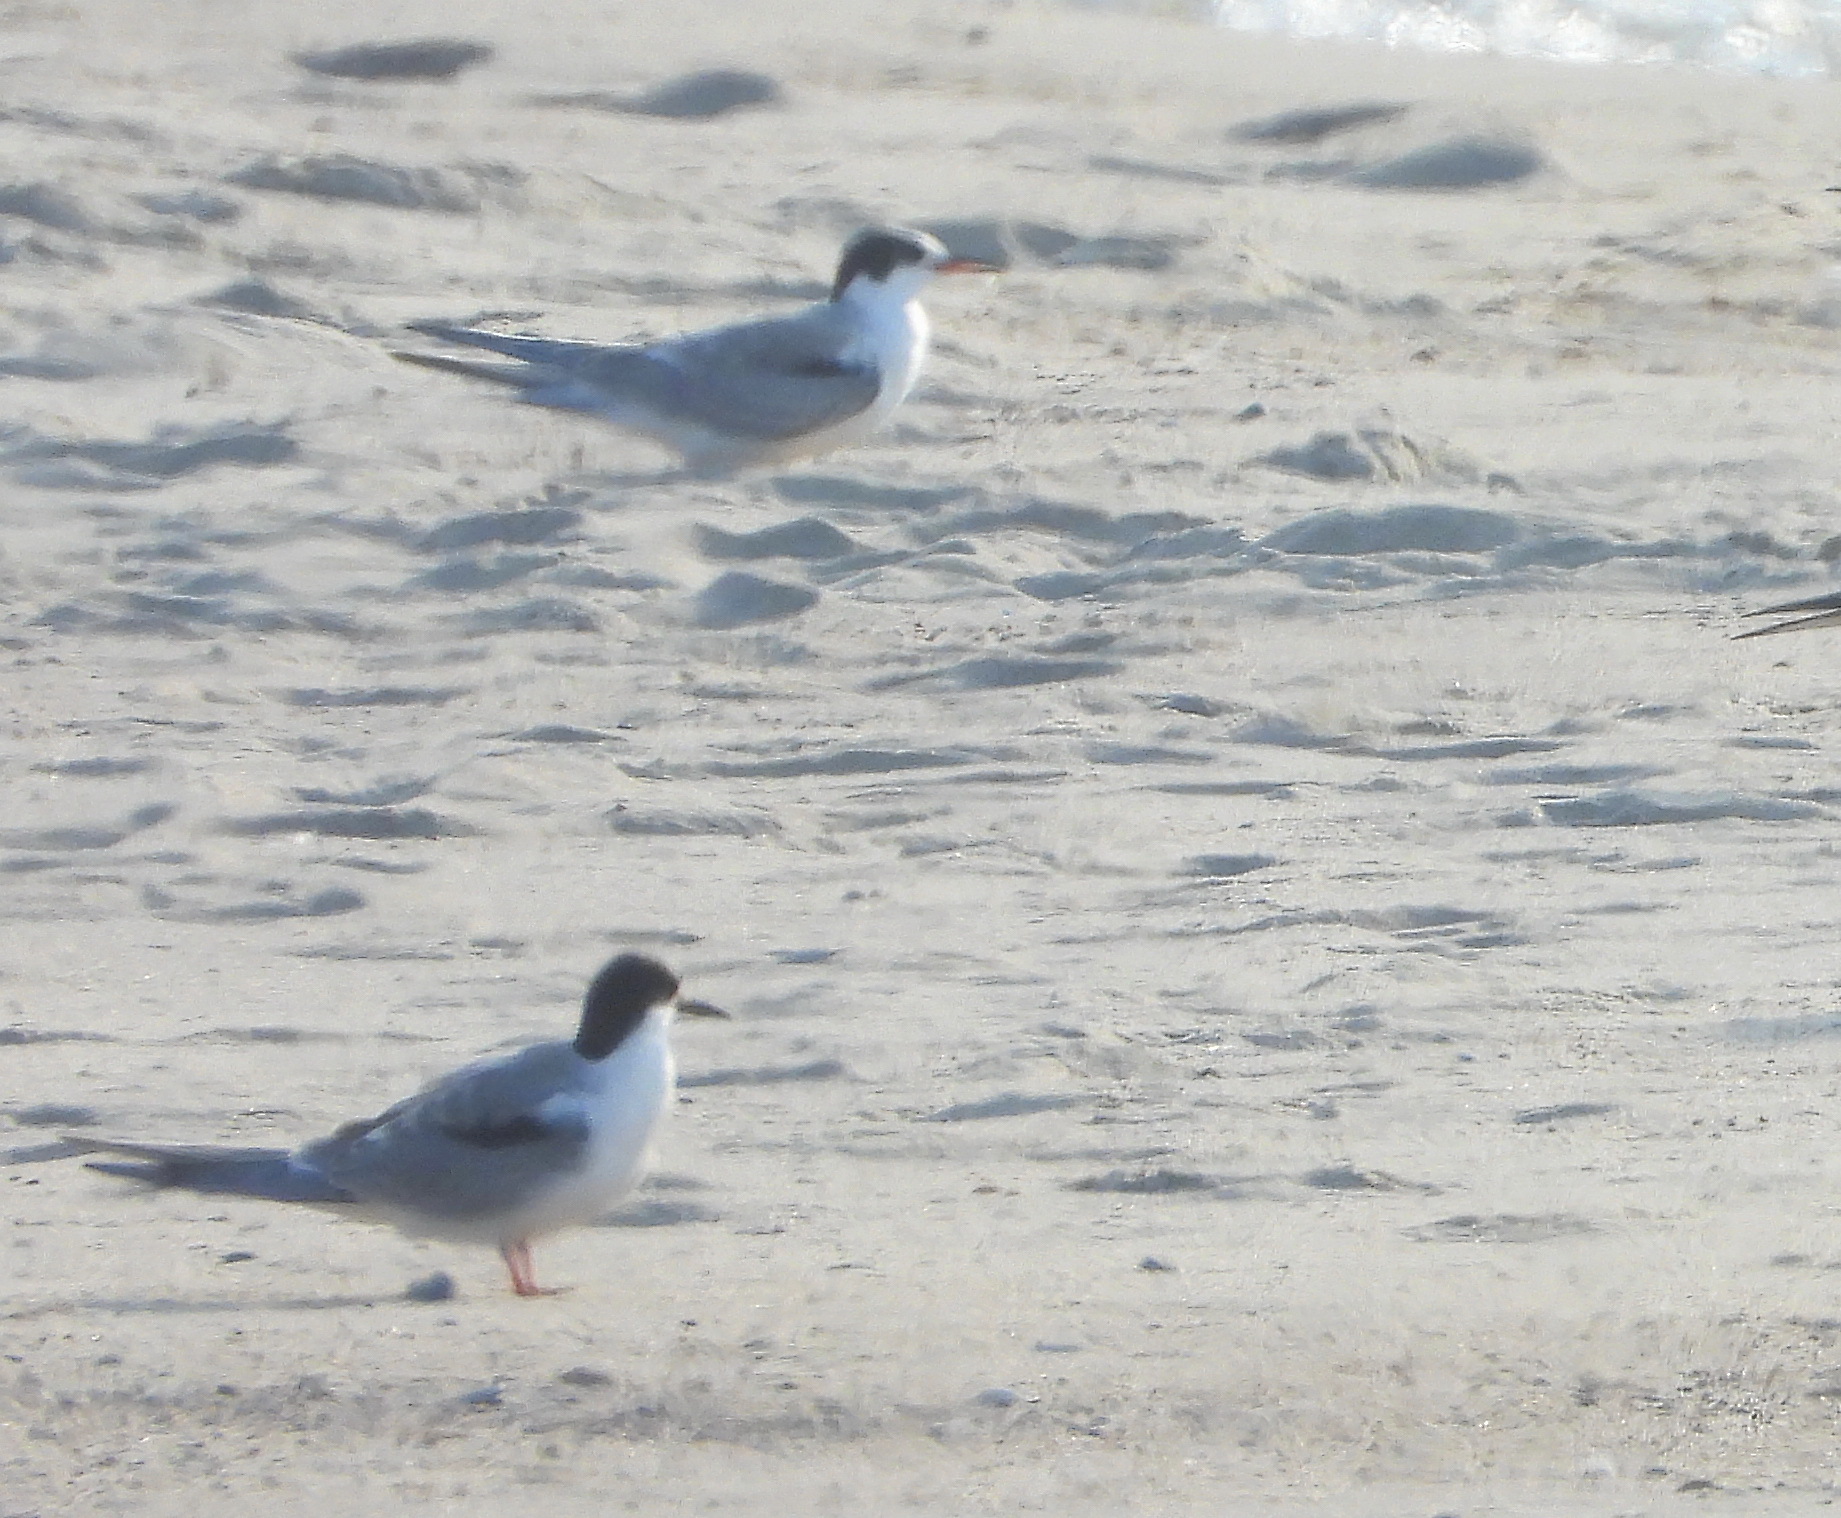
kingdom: Animalia
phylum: Chordata
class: Aves
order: Charadriiformes
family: Laridae
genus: Sterna
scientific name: Sterna hirundo
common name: Common tern
